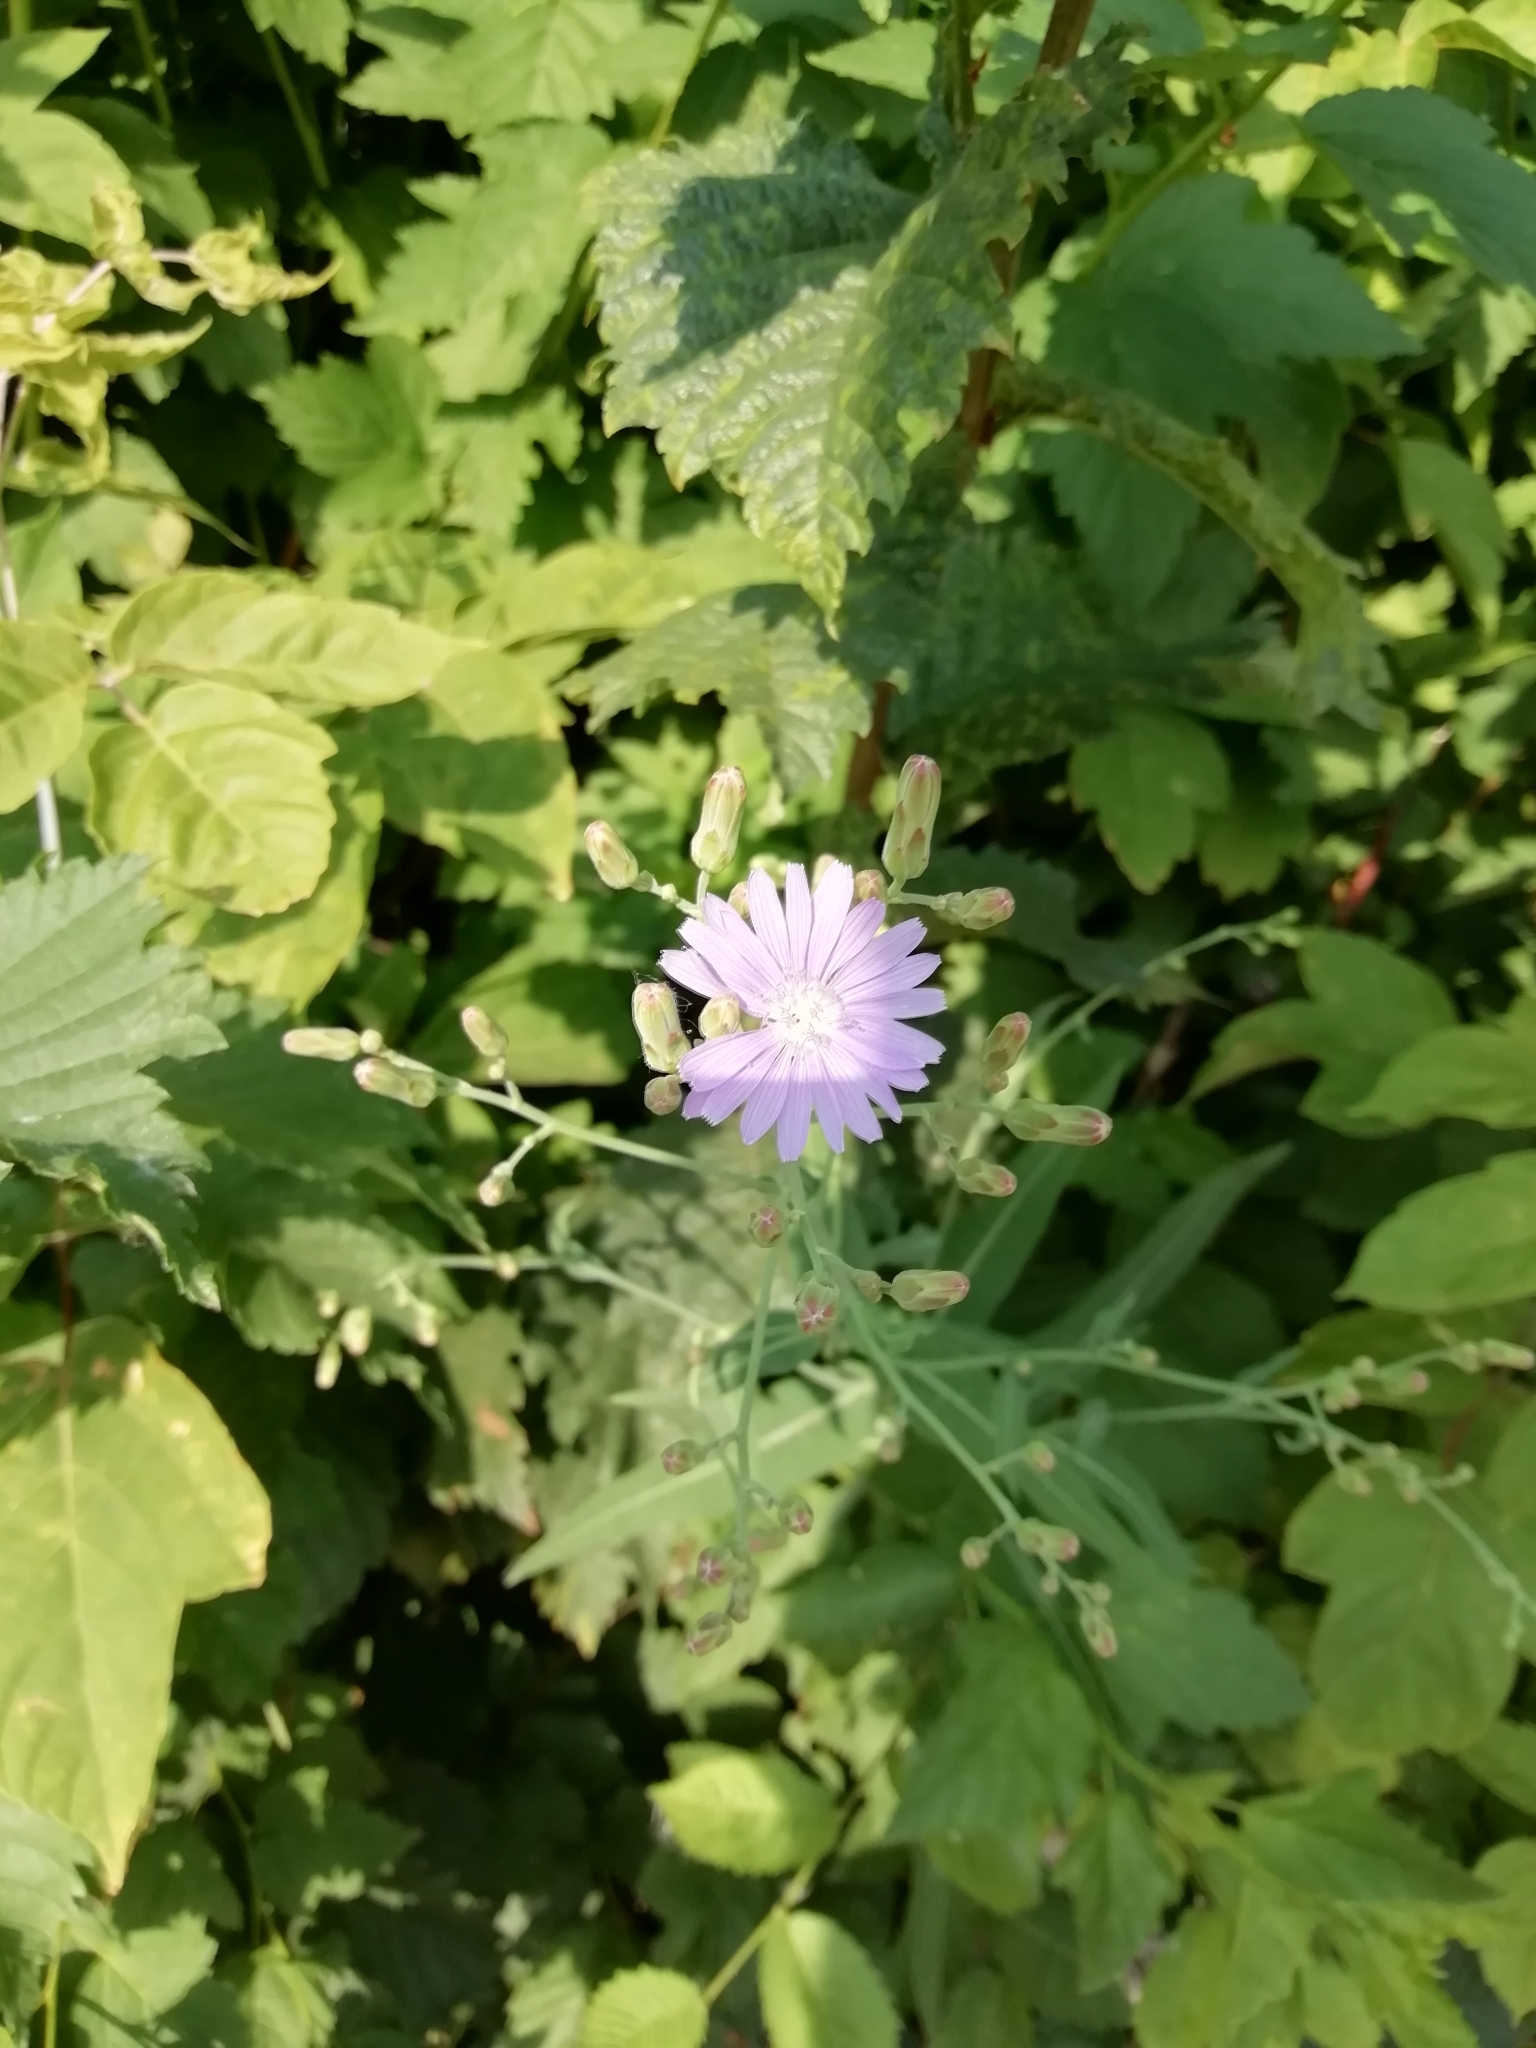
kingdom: Plantae
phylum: Tracheophyta
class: Magnoliopsida
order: Asterales
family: Asteraceae
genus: Lactuca
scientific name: Lactuca tatarica
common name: Blue lettuce
